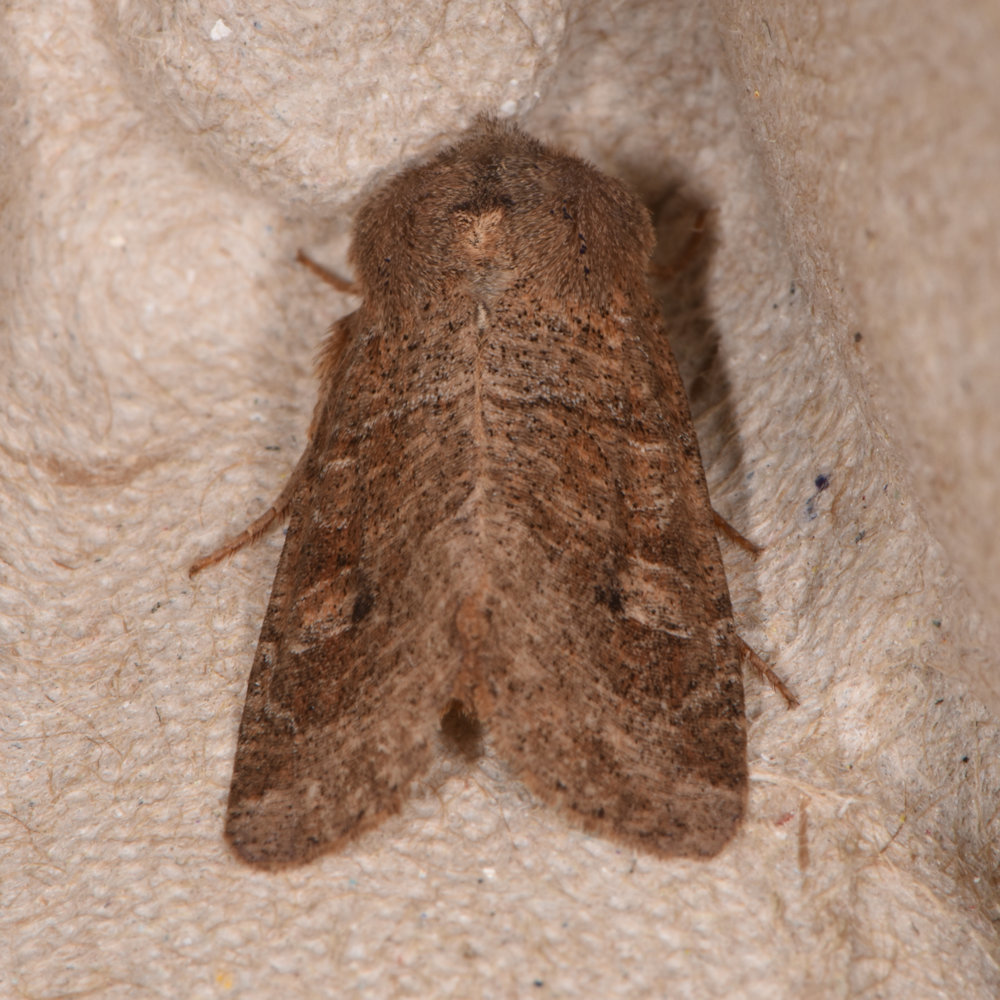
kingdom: Animalia
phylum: Arthropoda
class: Insecta
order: Lepidoptera
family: Noctuidae
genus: Crocigrapha
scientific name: Crocigrapha normani
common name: Norman's quaker
